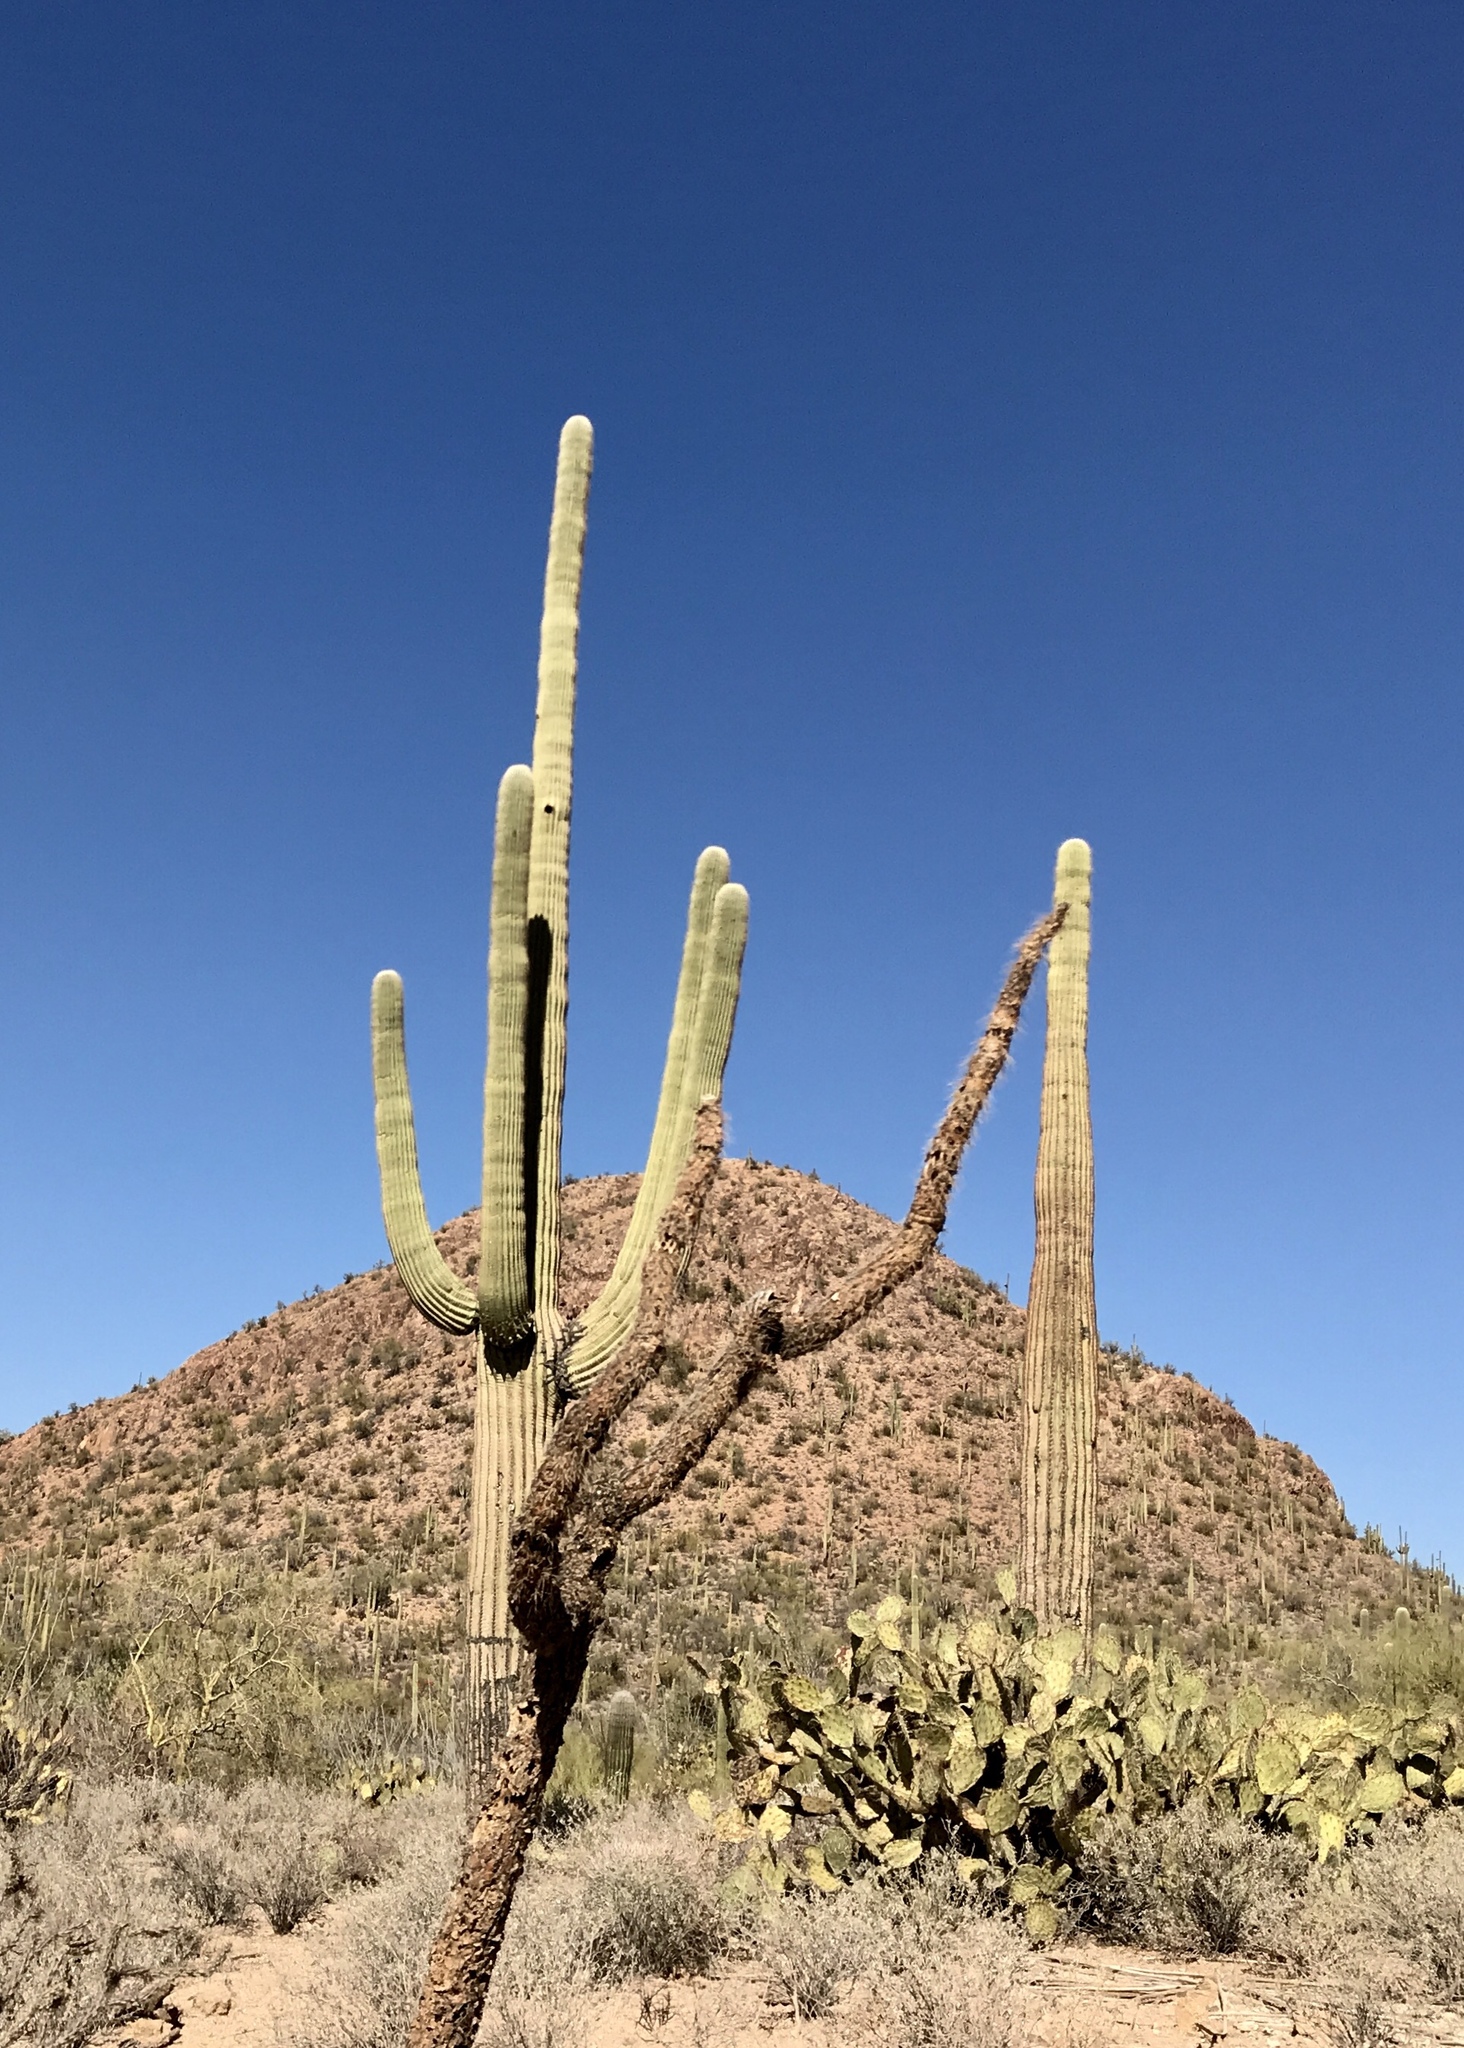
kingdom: Plantae
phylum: Tracheophyta
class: Magnoliopsida
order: Caryophyllales
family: Cactaceae
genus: Carnegiea
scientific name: Carnegiea gigantea
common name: Saguaro
